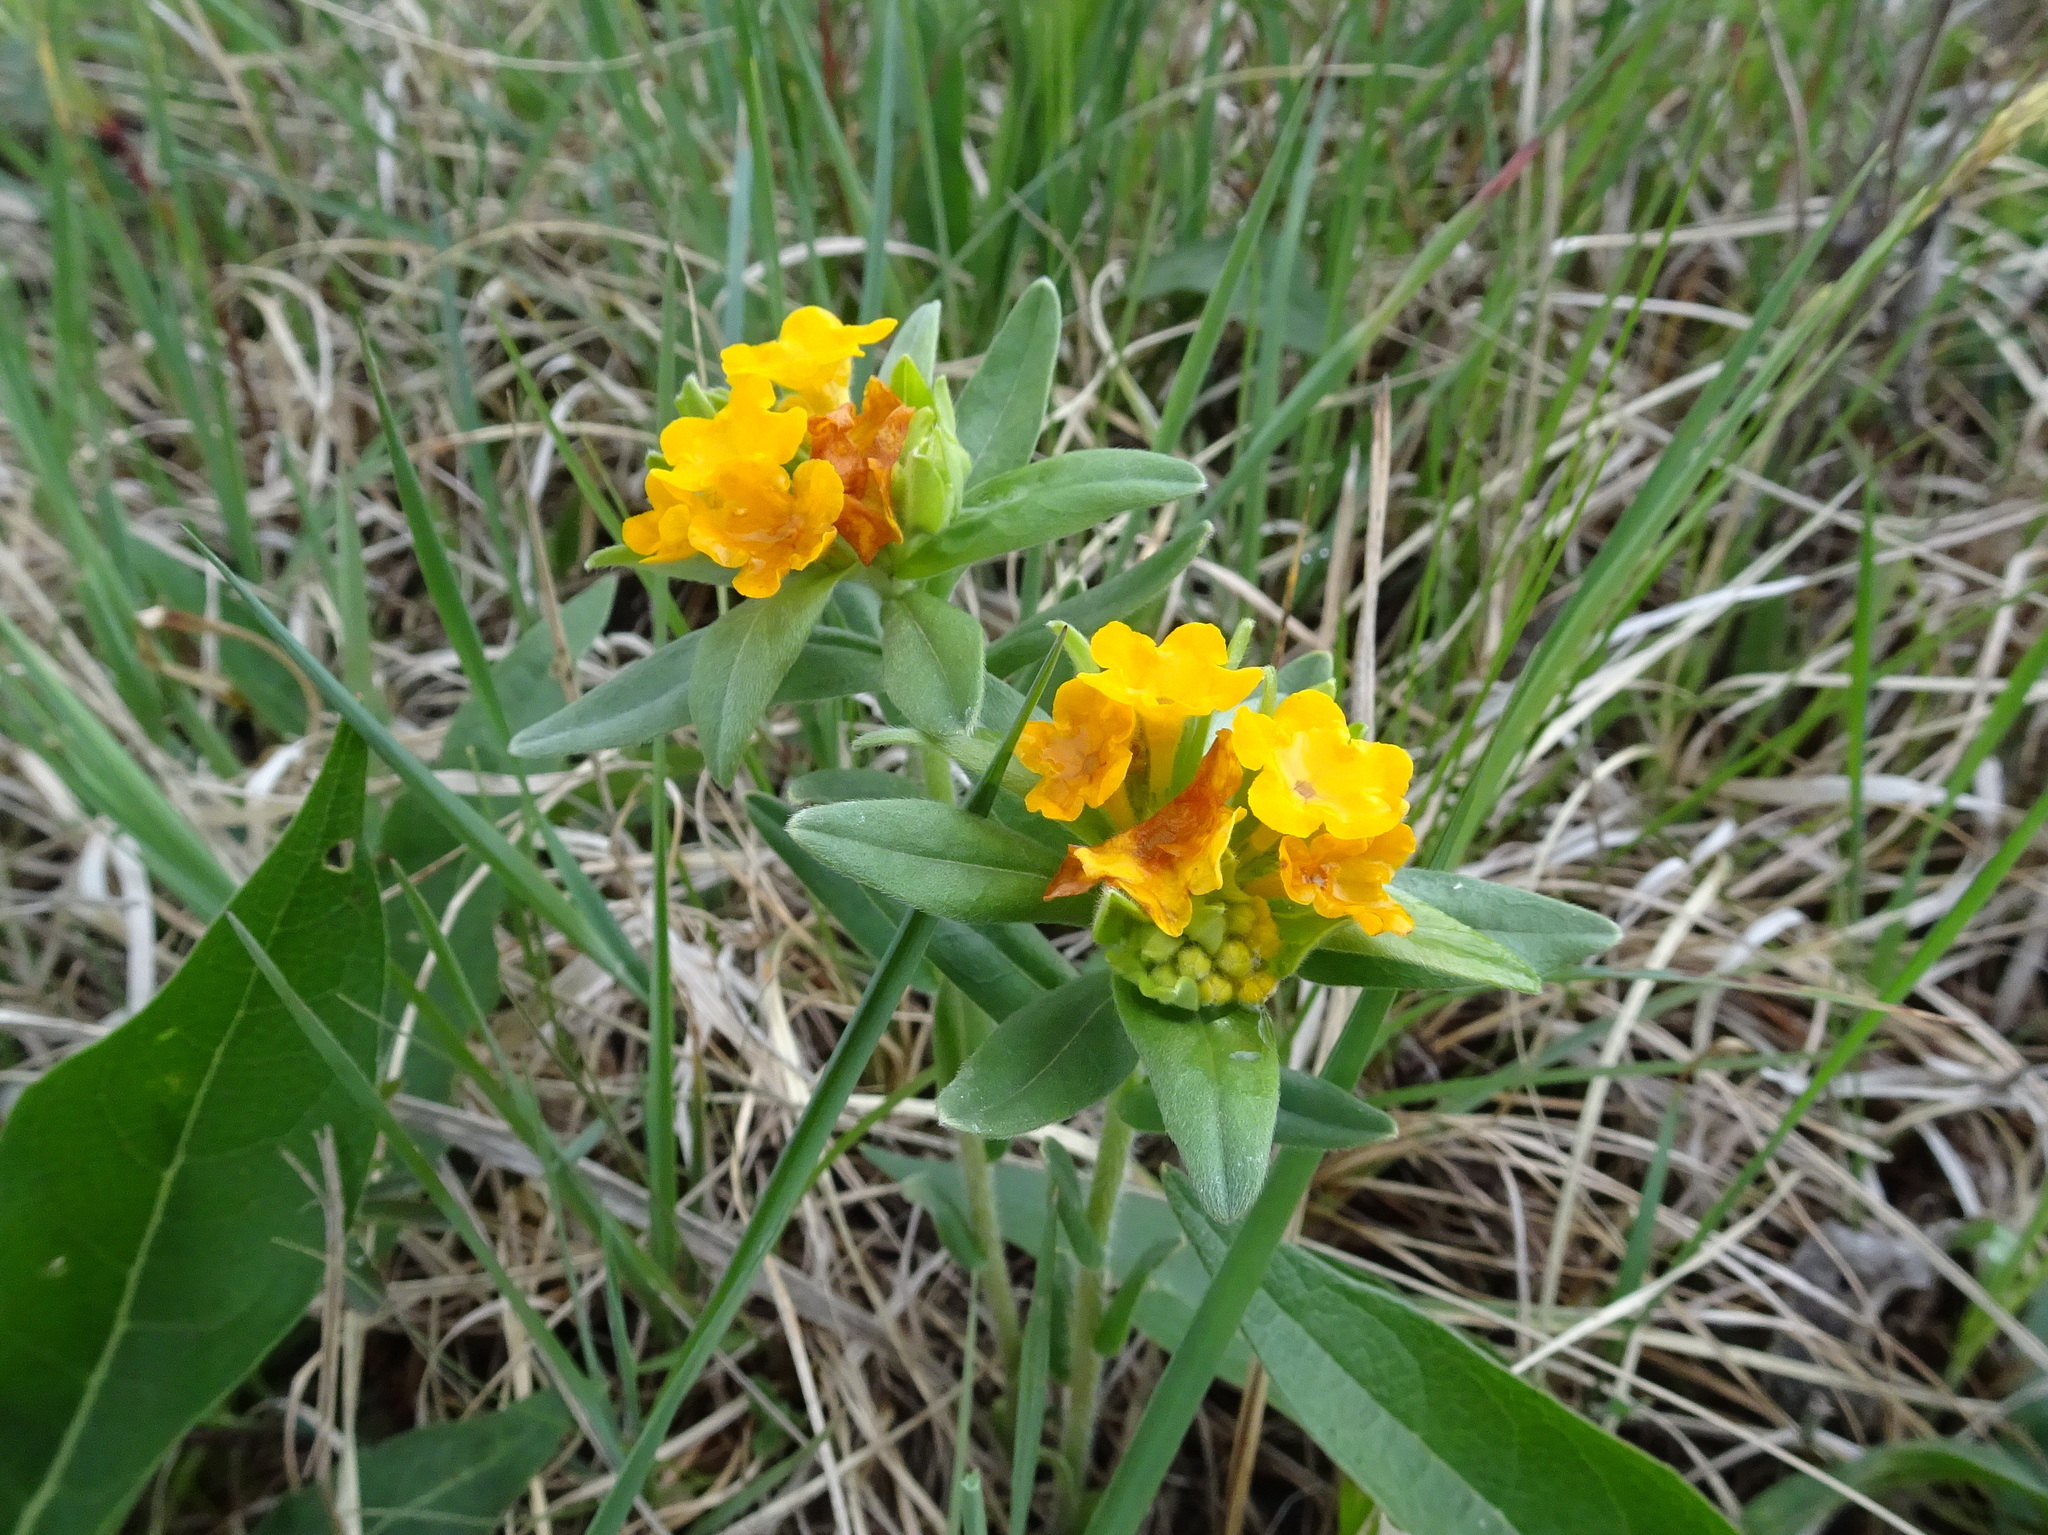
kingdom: Plantae
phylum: Tracheophyta
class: Magnoliopsida
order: Boraginales
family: Boraginaceae
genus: Lithospermum
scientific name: Lithospermum canescens
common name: Hoary puccoon
